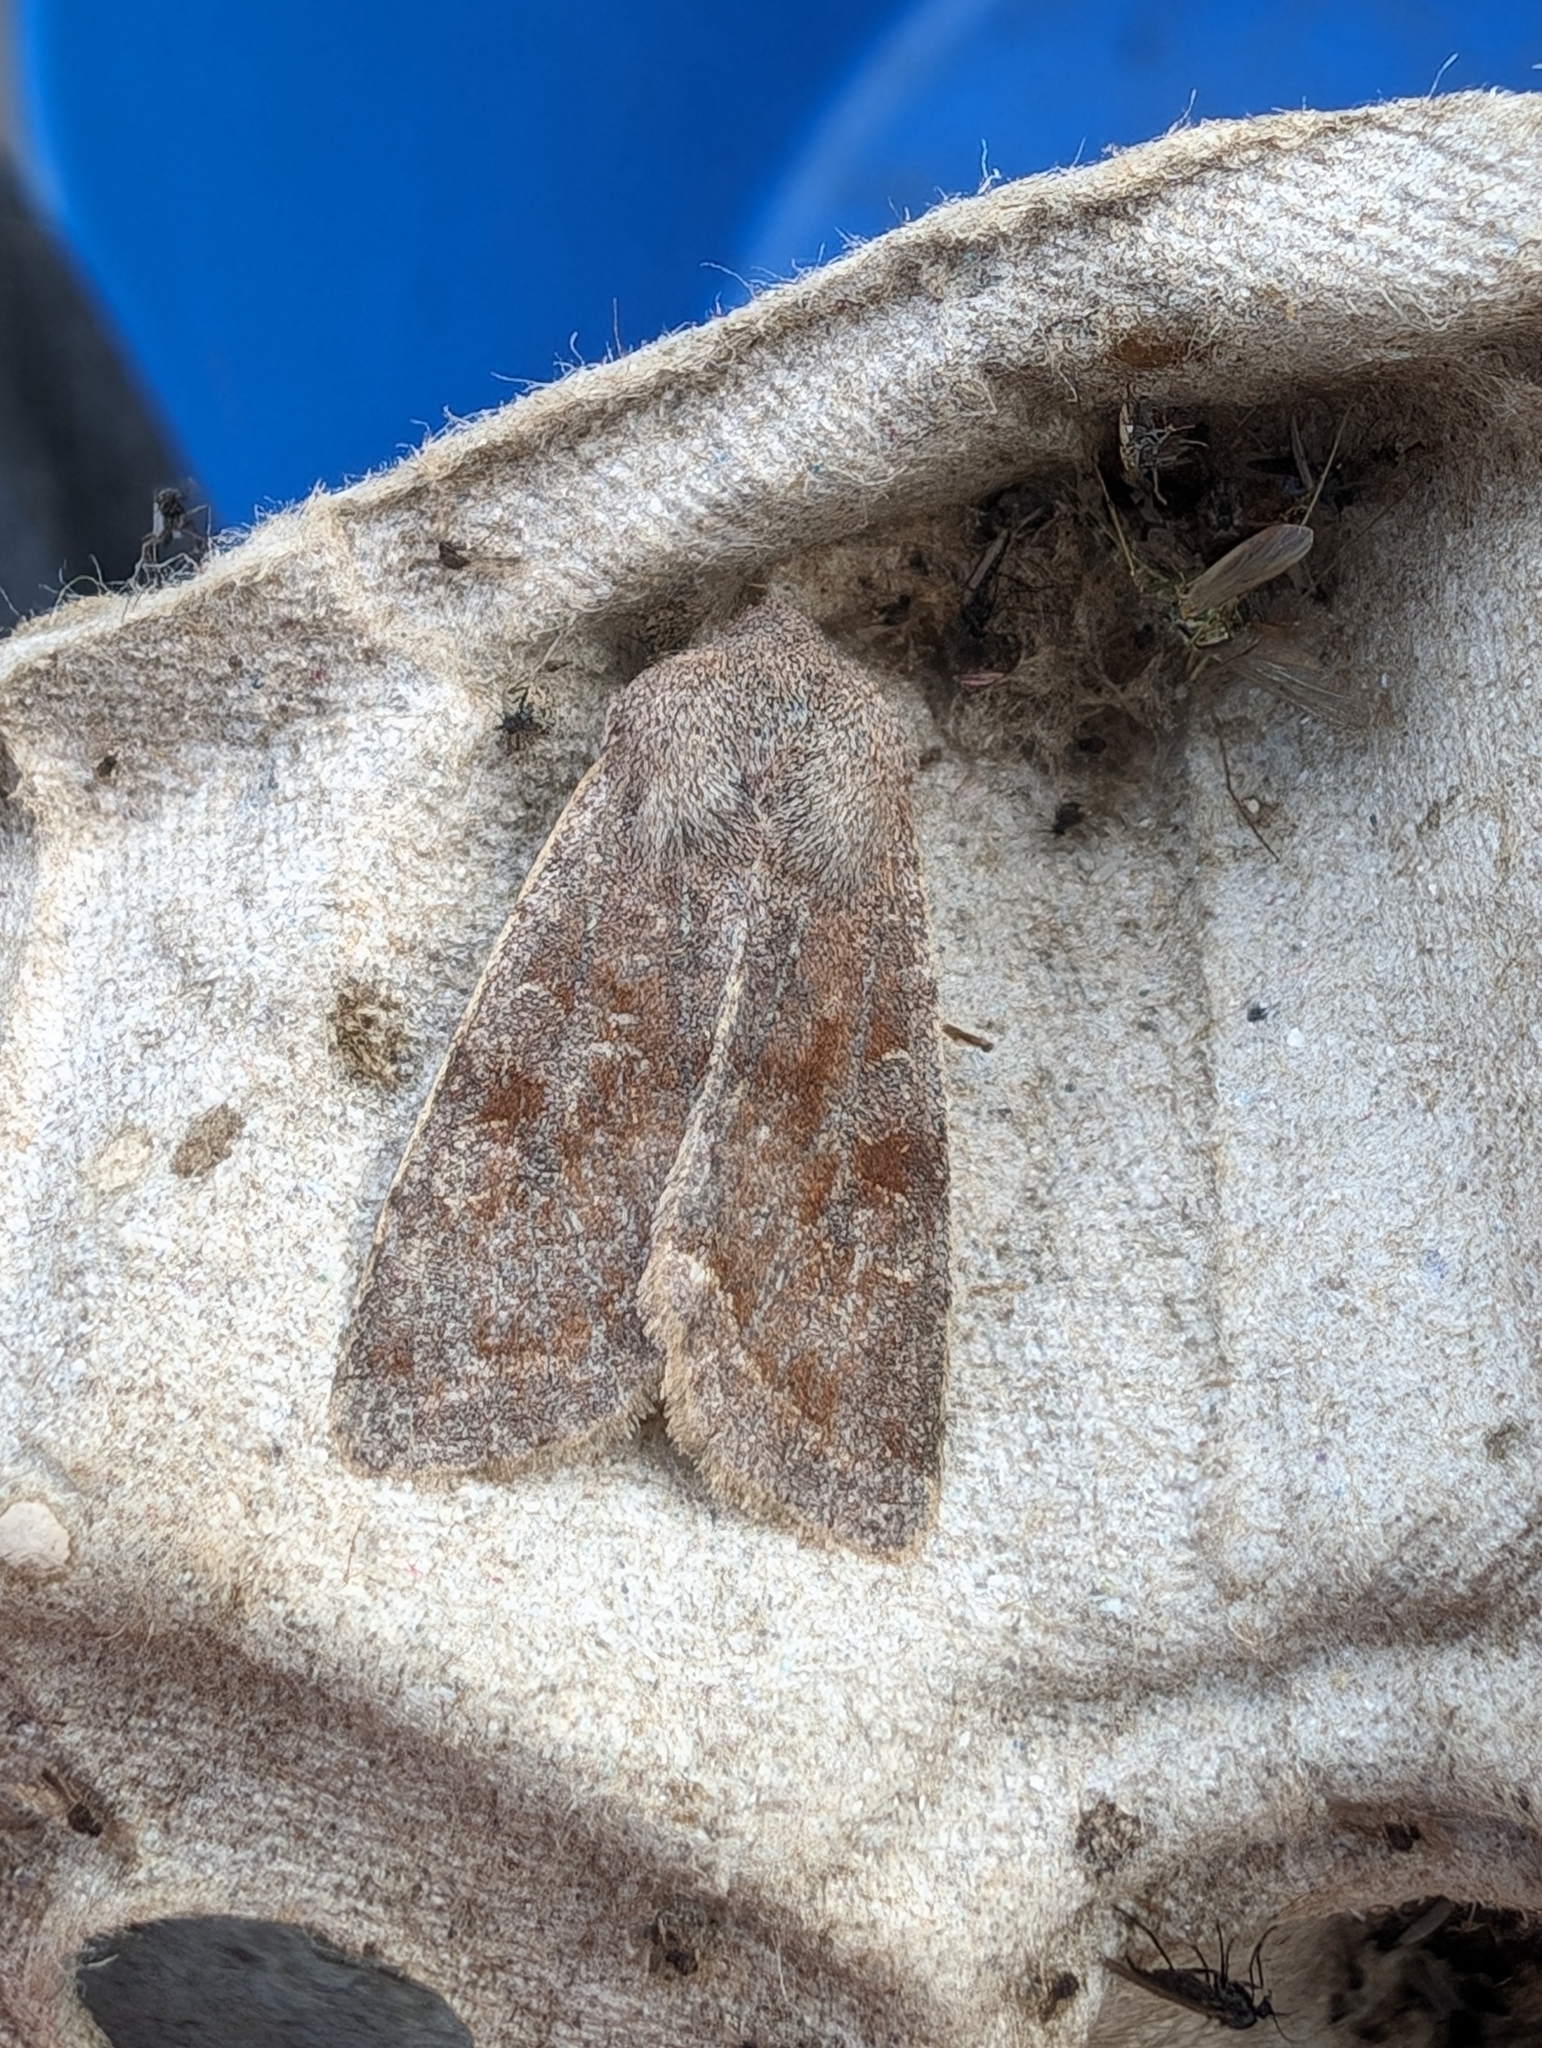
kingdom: Animalia
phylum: Arthropoda
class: Insecta
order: Lepidoptera
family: Noctuidae
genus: Orthosia
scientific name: Orthosia incerta
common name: Clouded drab
